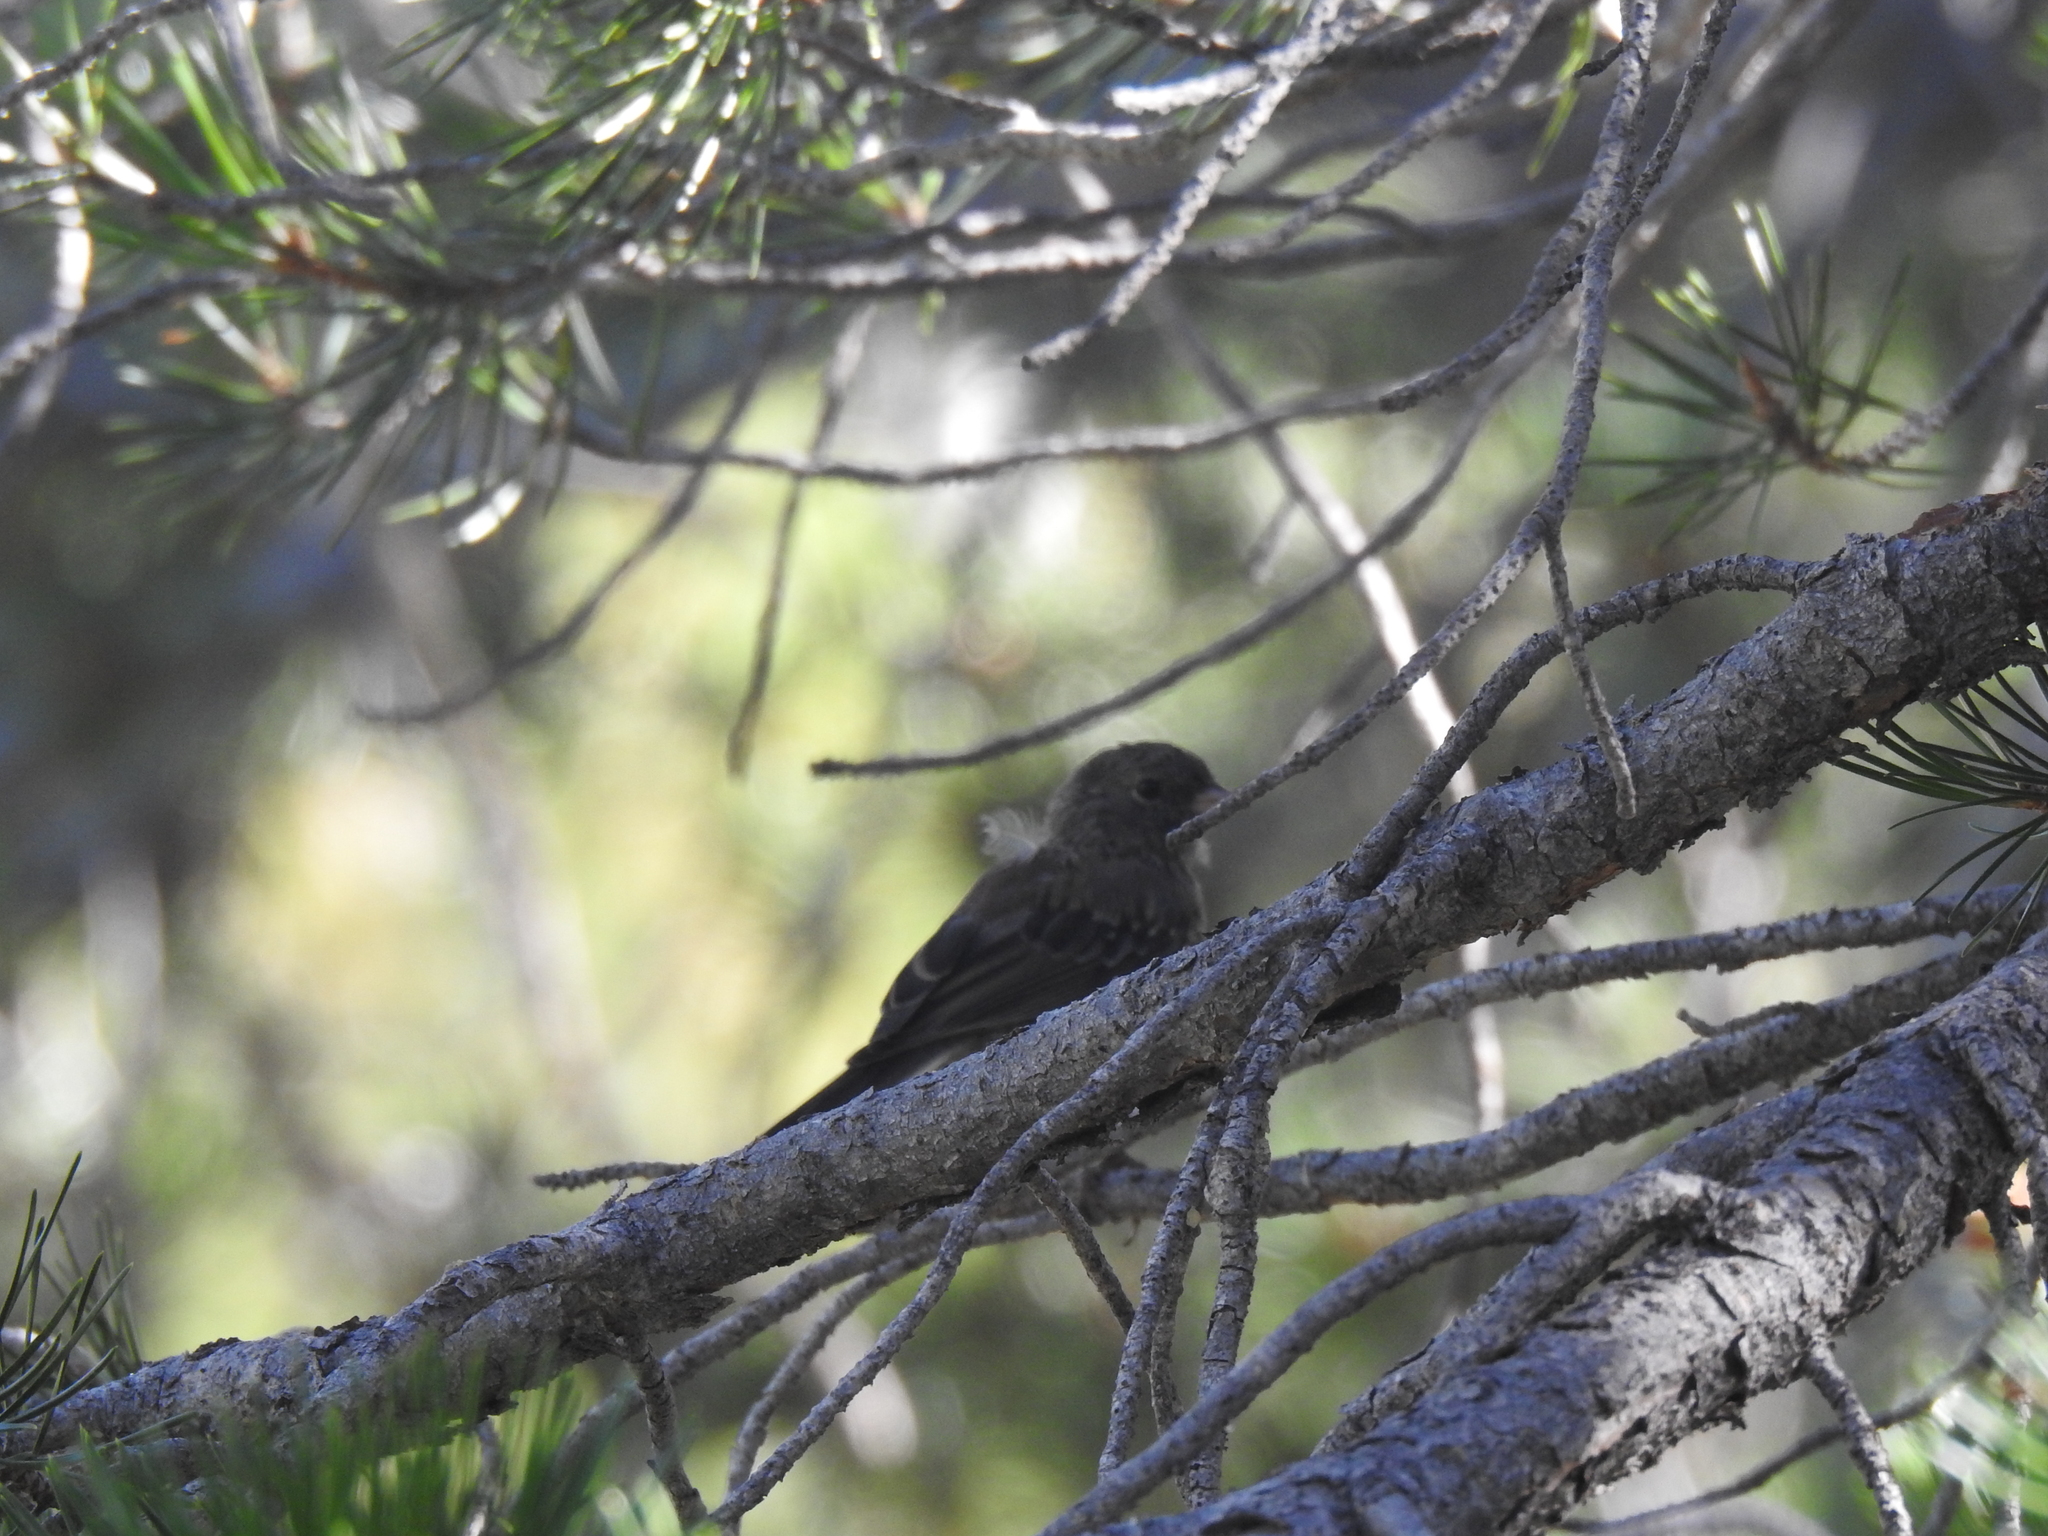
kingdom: Animalia
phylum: Chordata
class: Aves
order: Passeriformes
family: Fringillidae
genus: Haemorhous
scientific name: Haemorhous mexicanus
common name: House finch
